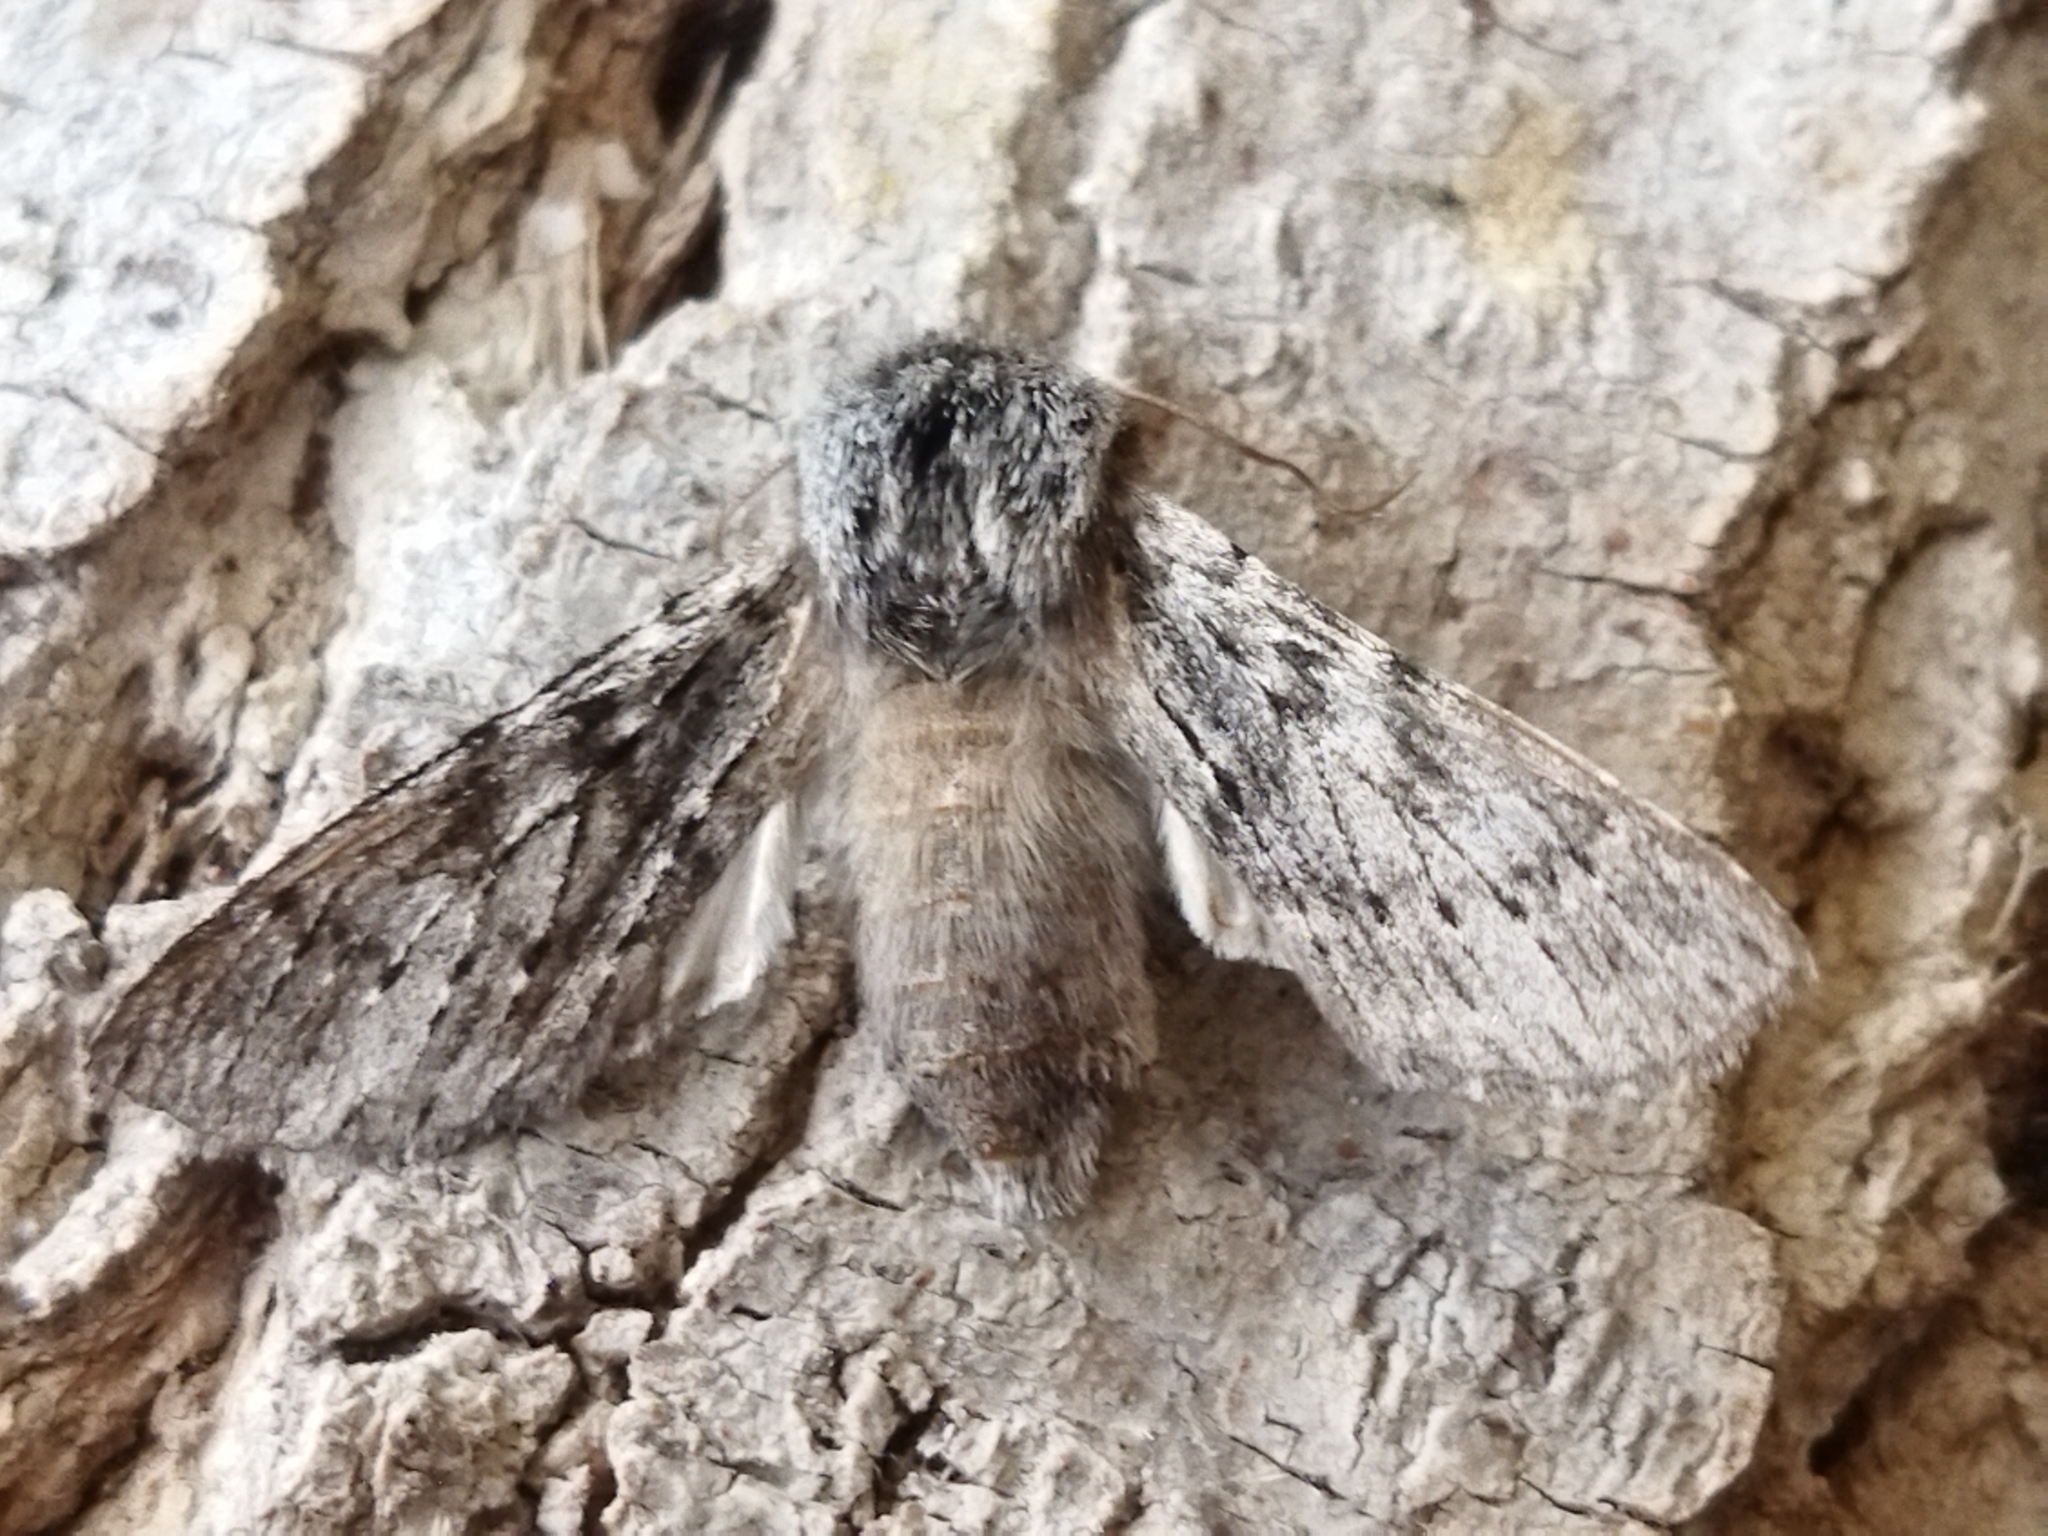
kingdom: Animalia
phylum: Arthropoda
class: Insecta
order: Lepidoptera
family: Notodontidae
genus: Dicranura
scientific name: Dicranura ulmi
